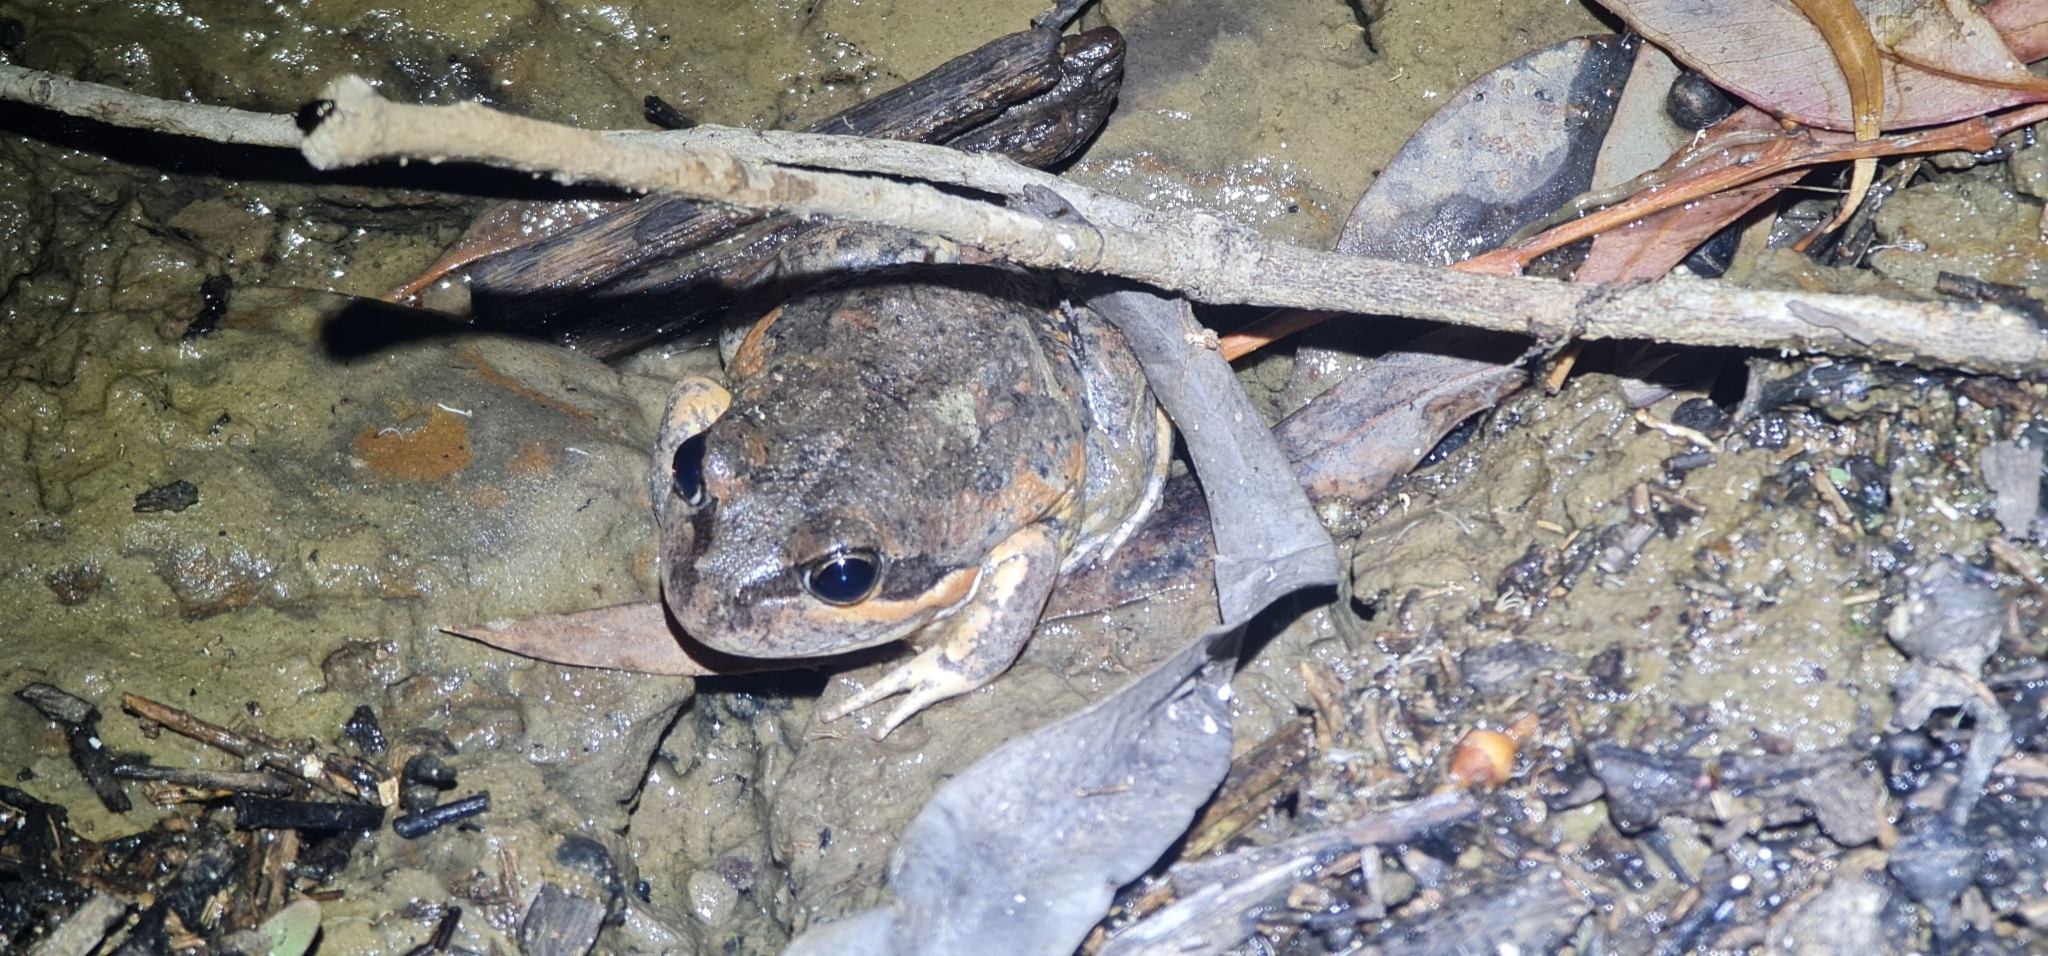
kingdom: Animalia
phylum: Chordata
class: Amphibia
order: Anura
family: Limnodynastidae
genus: Limnodynastes
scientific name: Limnodynastes dumerilii
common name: Banjo frog
